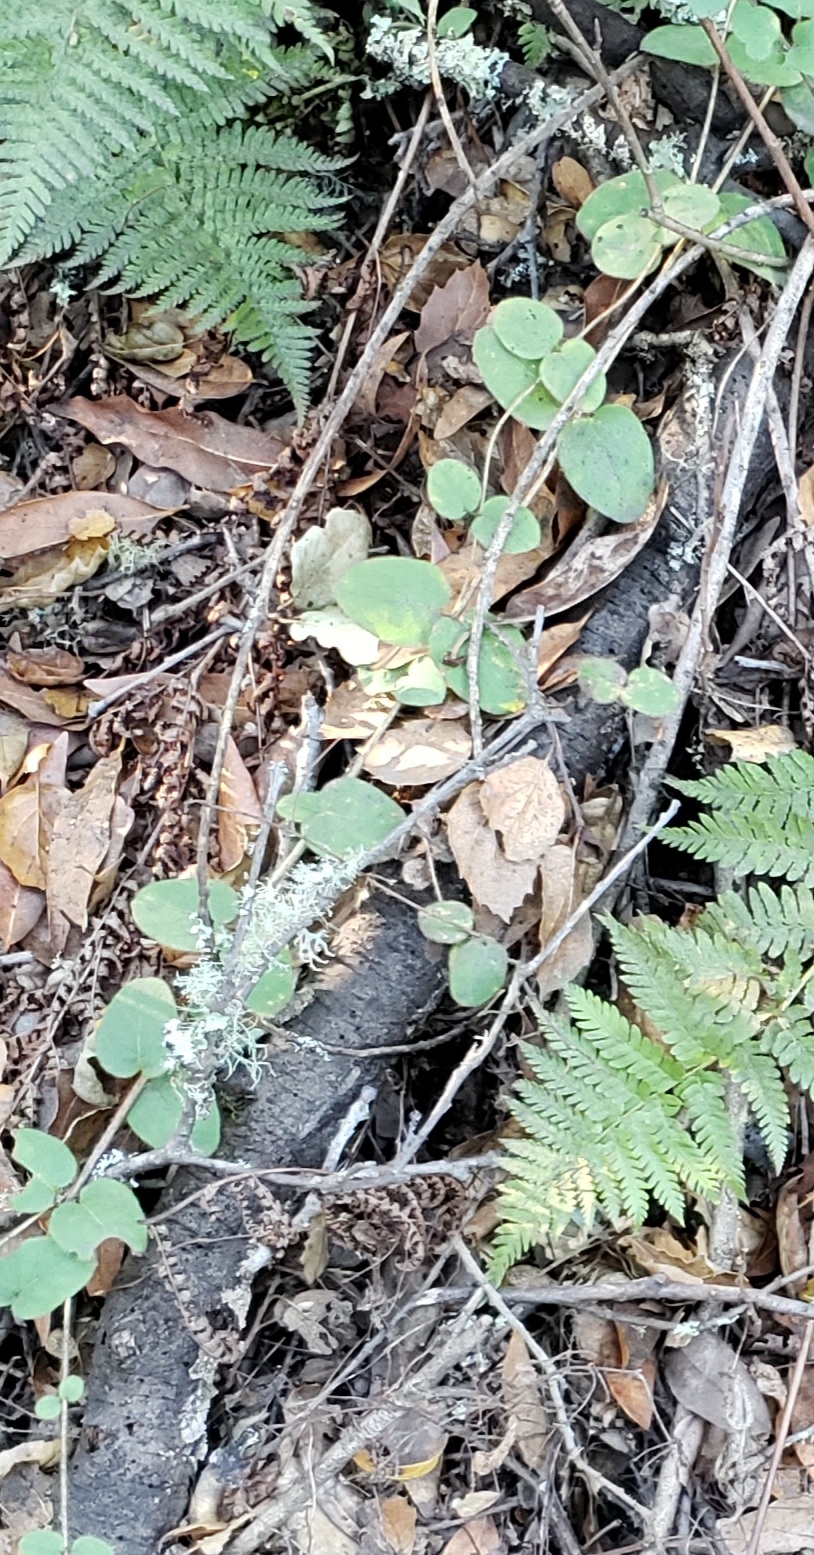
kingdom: Plantae
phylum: Tracheophyta
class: Magnoliopsida
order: Dipsacales
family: Caprifoliaceae
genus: Lonicera
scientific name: Lonicera hispidula
